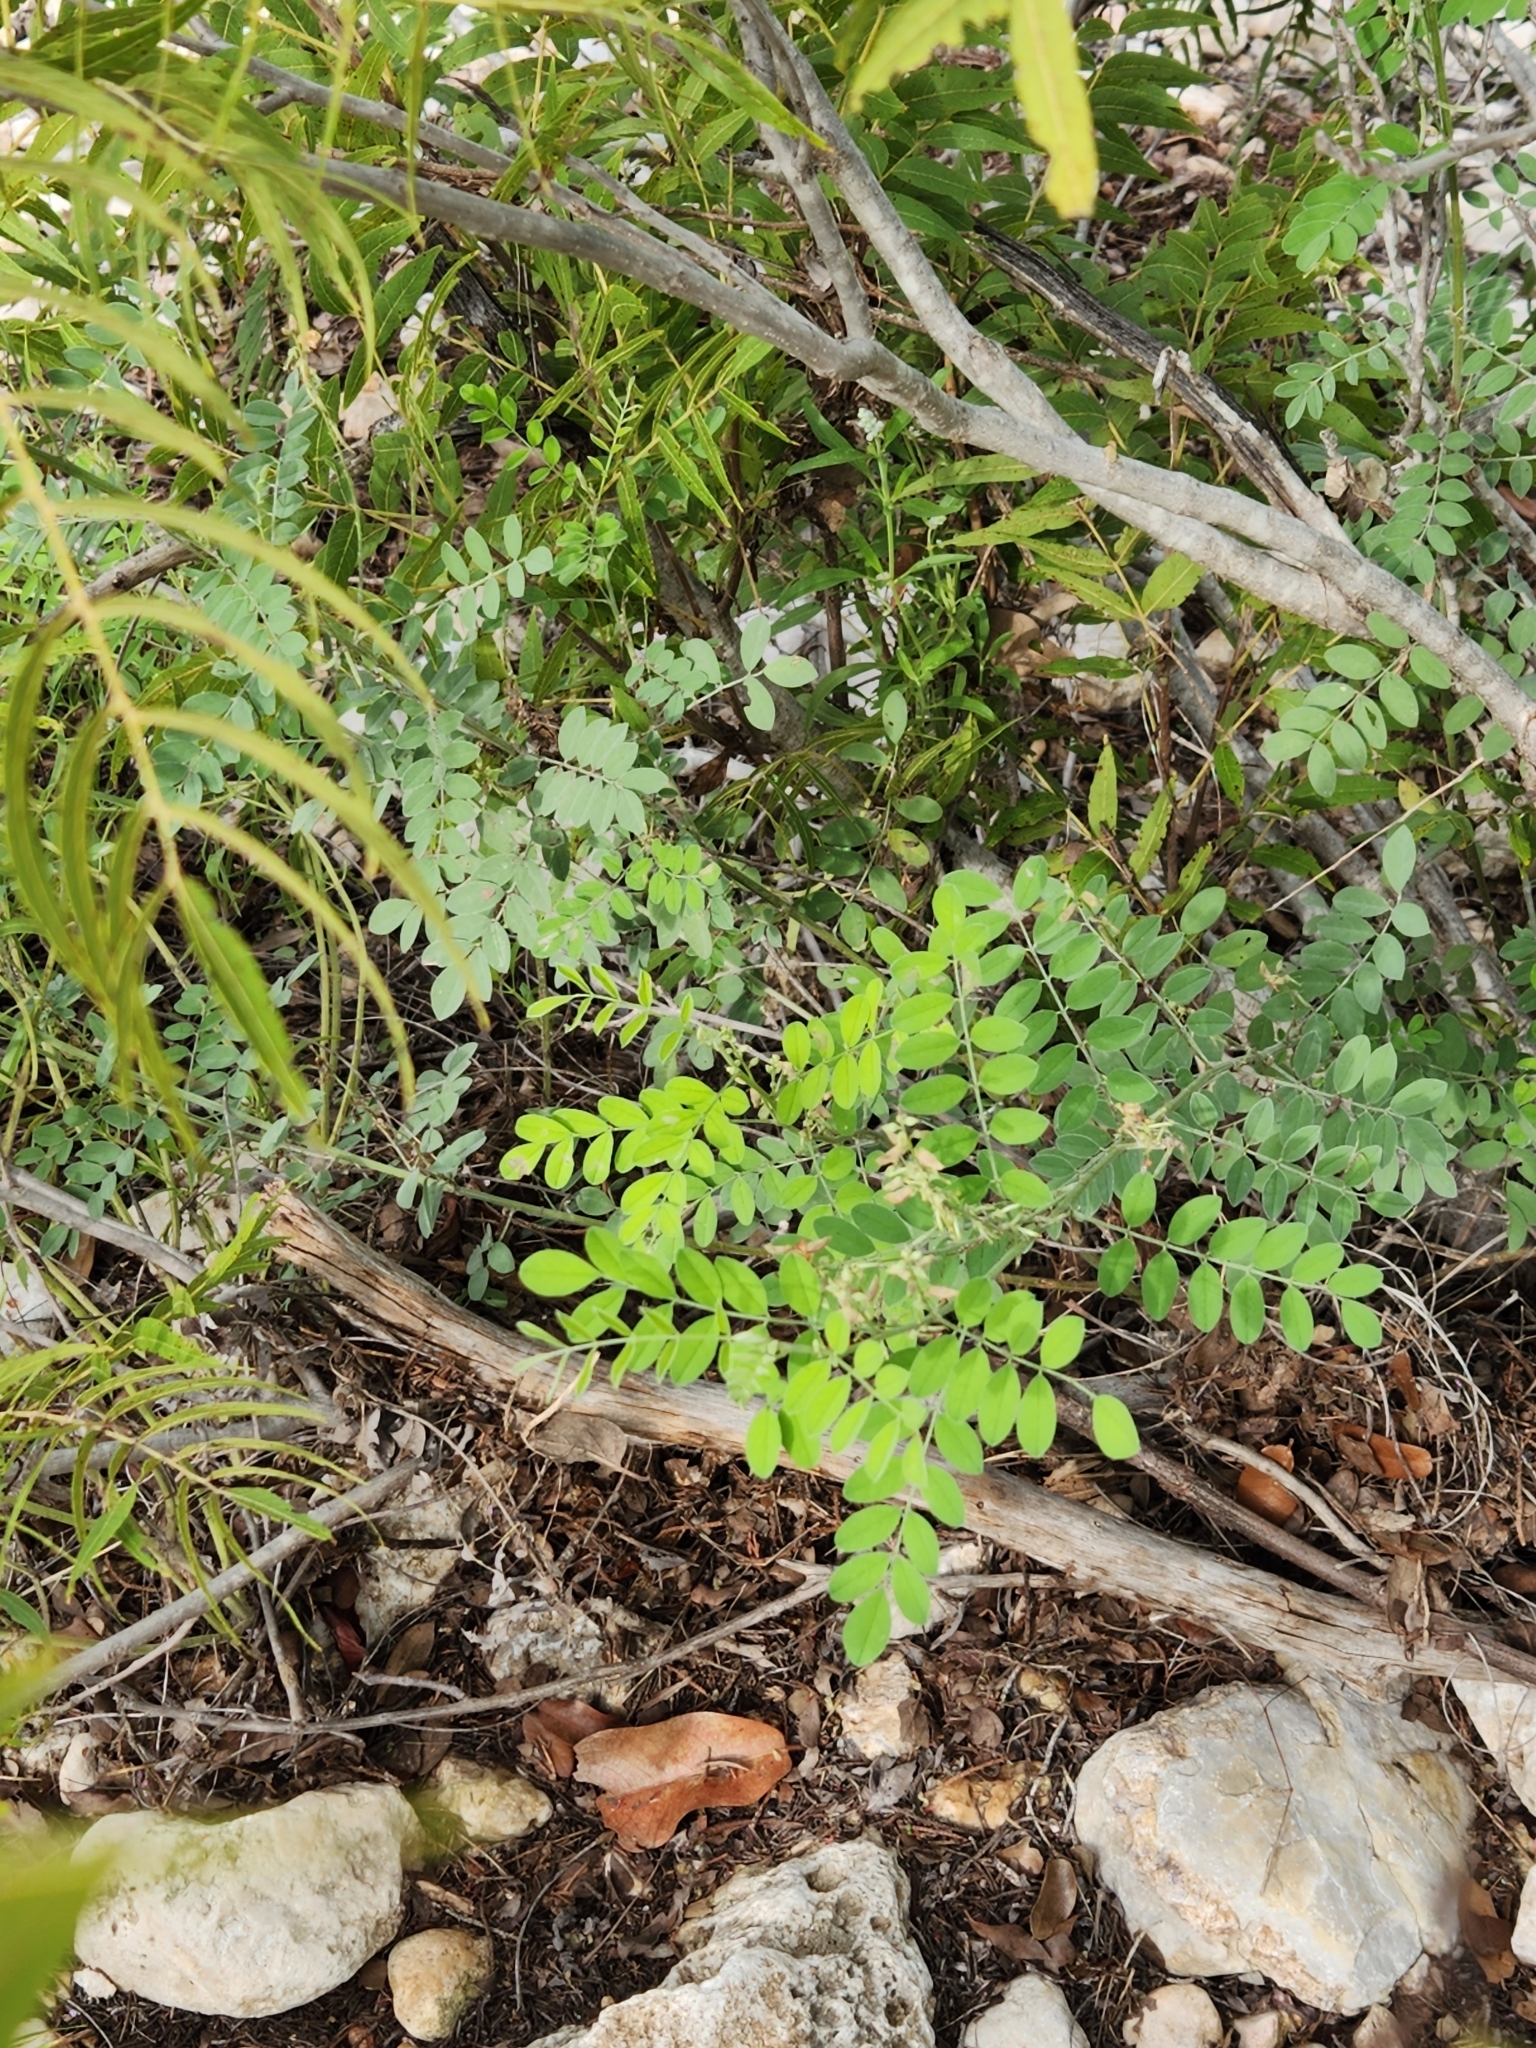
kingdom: Plantae
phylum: Tracheophyta
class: Magnoliopsida
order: Fabales
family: Fabaceae
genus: Indigofera
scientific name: Indigofera lindheimeriana
